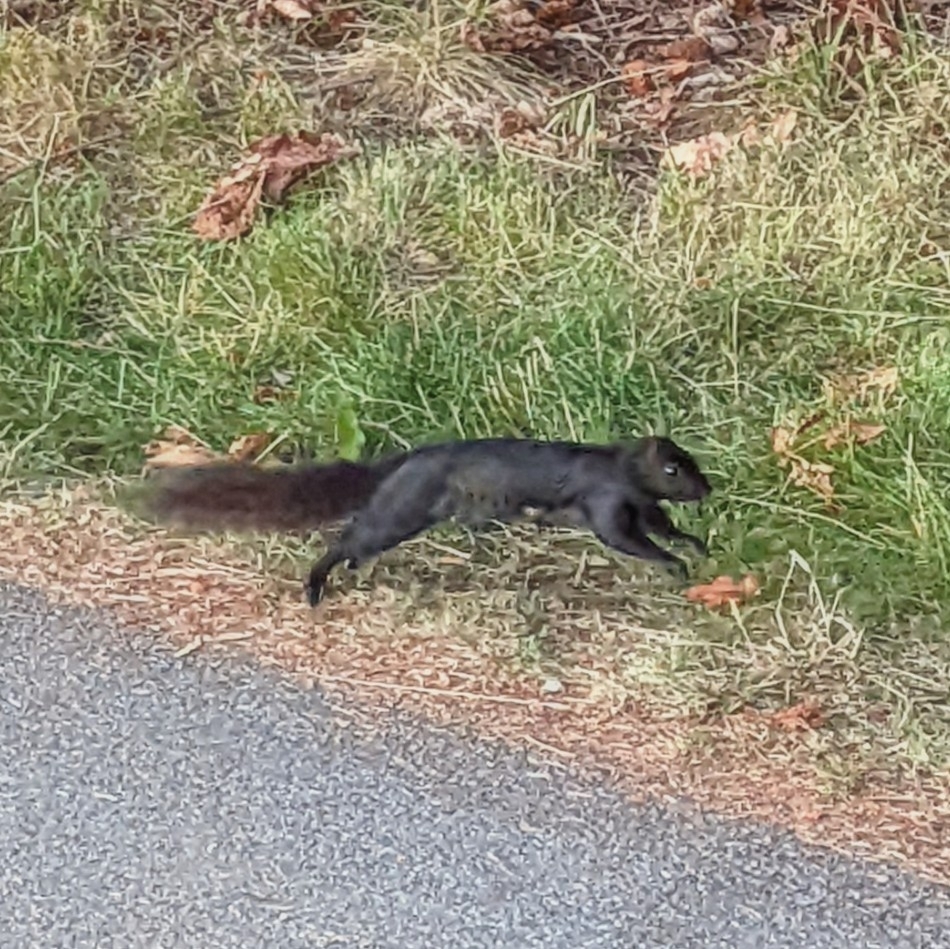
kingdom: Animalia
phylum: Chordata
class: Mammalia
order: Rodentia
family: Sciuridae
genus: Sciurus
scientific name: Sciurus carolinensis
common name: Eastern gray squirrel
